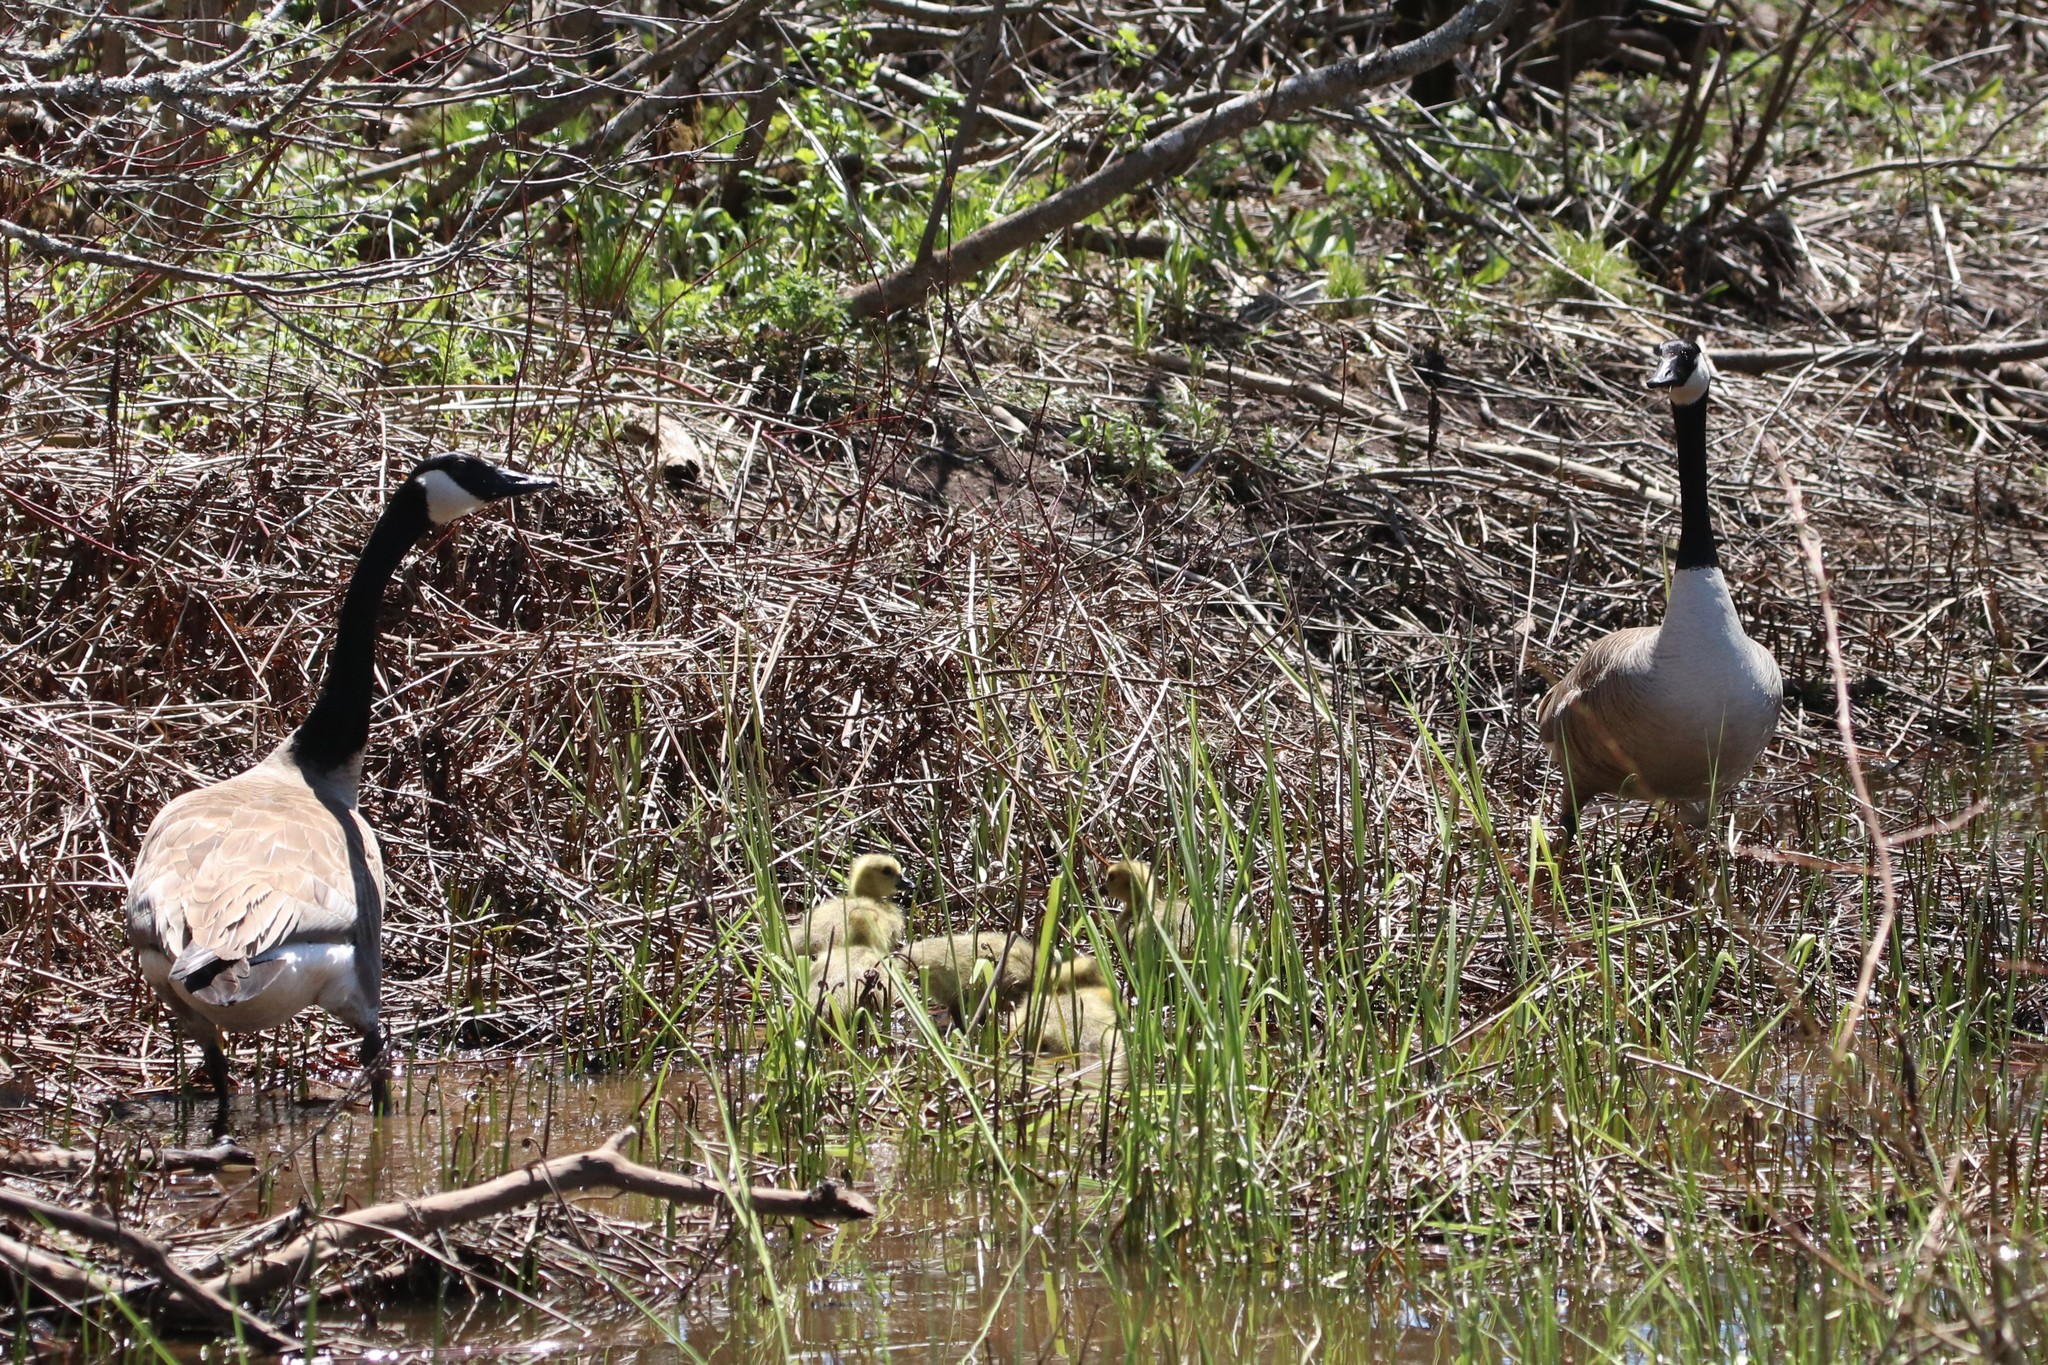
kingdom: Animalia
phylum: Chordata
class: Aves
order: Anseriformes
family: Anatidae
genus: Branta
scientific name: Branta canadensis
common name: Canada goose
